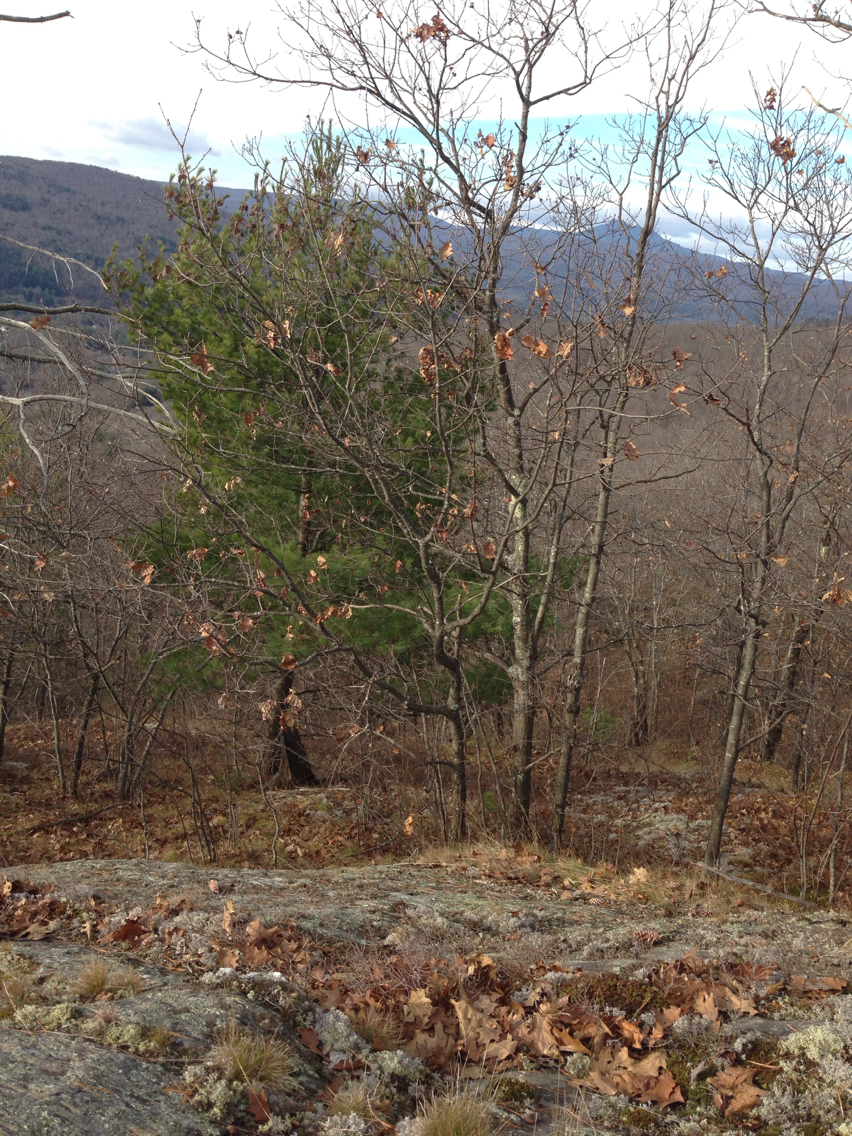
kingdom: Plantae
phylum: Tracheophyta
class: Magnoliopsida
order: Fagales
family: Fagaceae
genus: Quercus
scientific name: Quercus rubra
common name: Red oak
